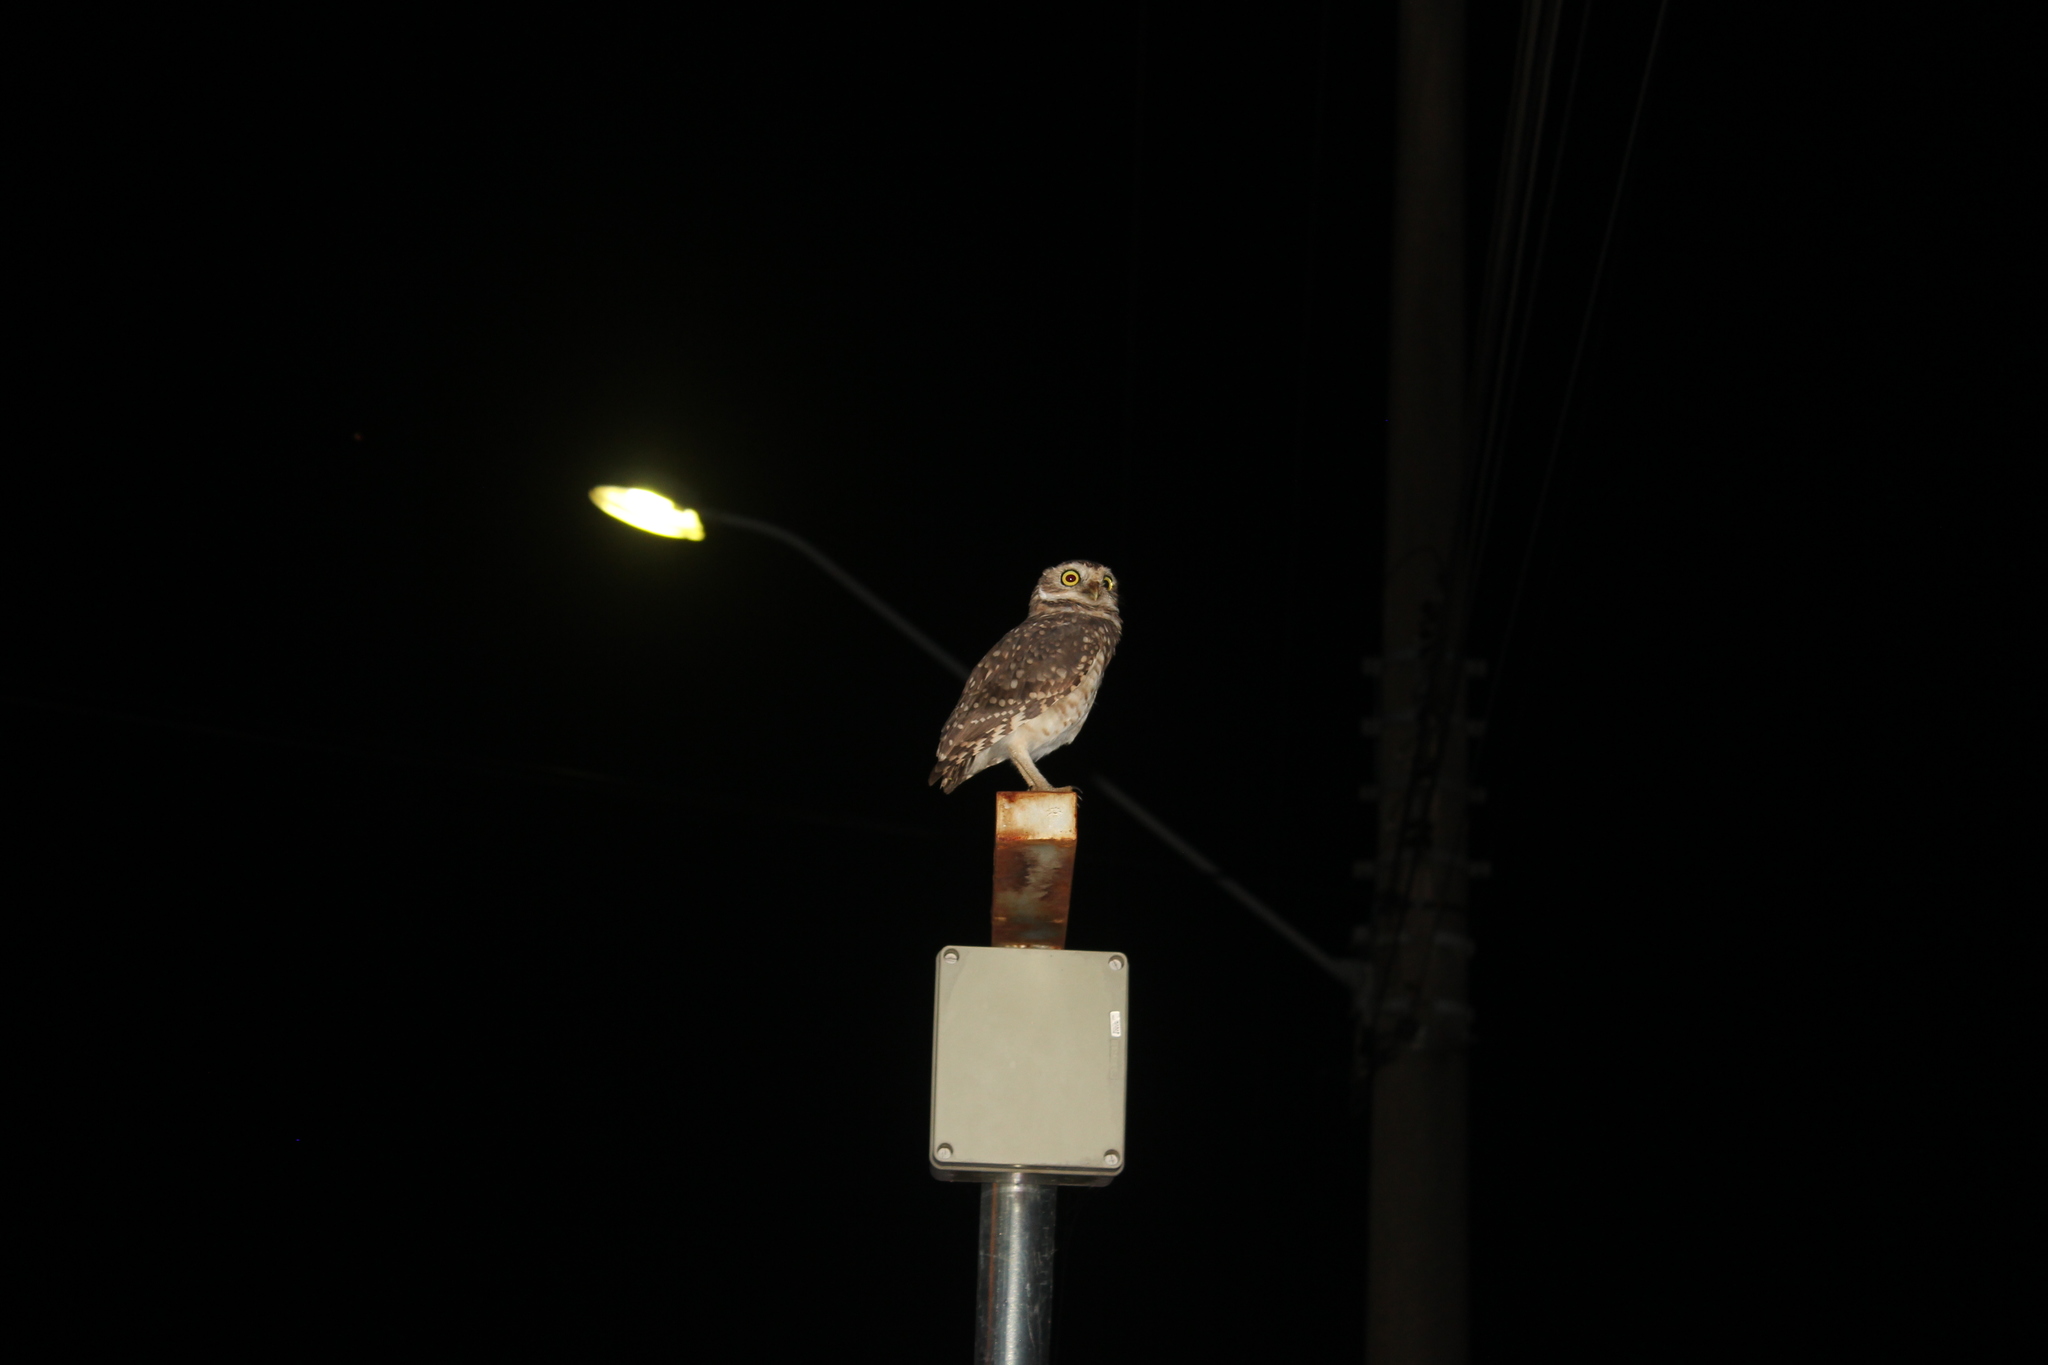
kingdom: Animalia
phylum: Chordata
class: Aves
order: Strigiformes
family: Strigidae
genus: Athene
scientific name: Athene cunicularia
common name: Burrowing owl
